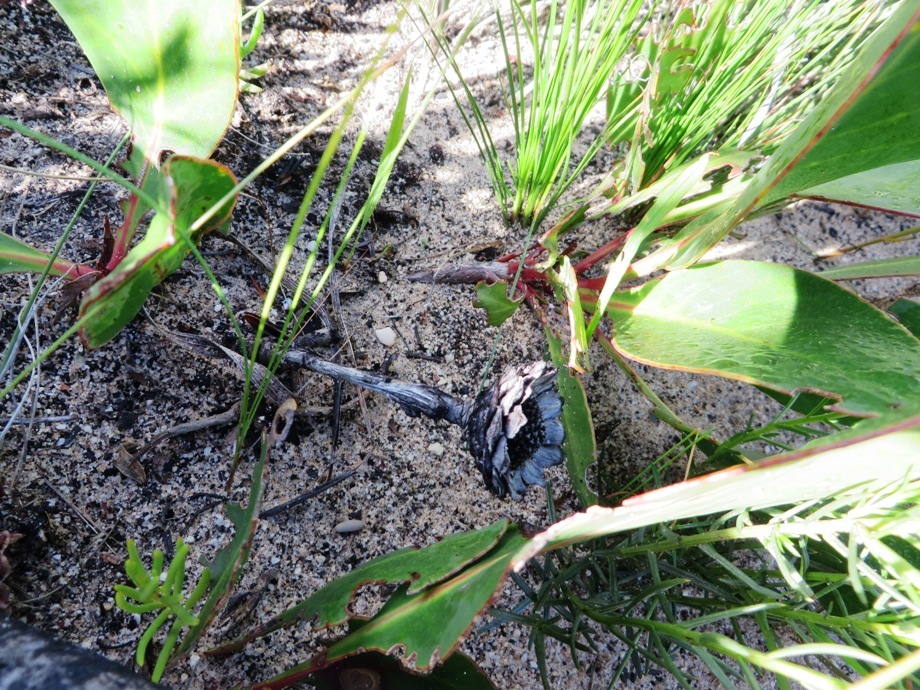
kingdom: Plantae
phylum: Tracheophyta
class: Magnoliopsida
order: Proteales
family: Proteaceae
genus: Protea
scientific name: Protea acaulos
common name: Common ground sugarbush
